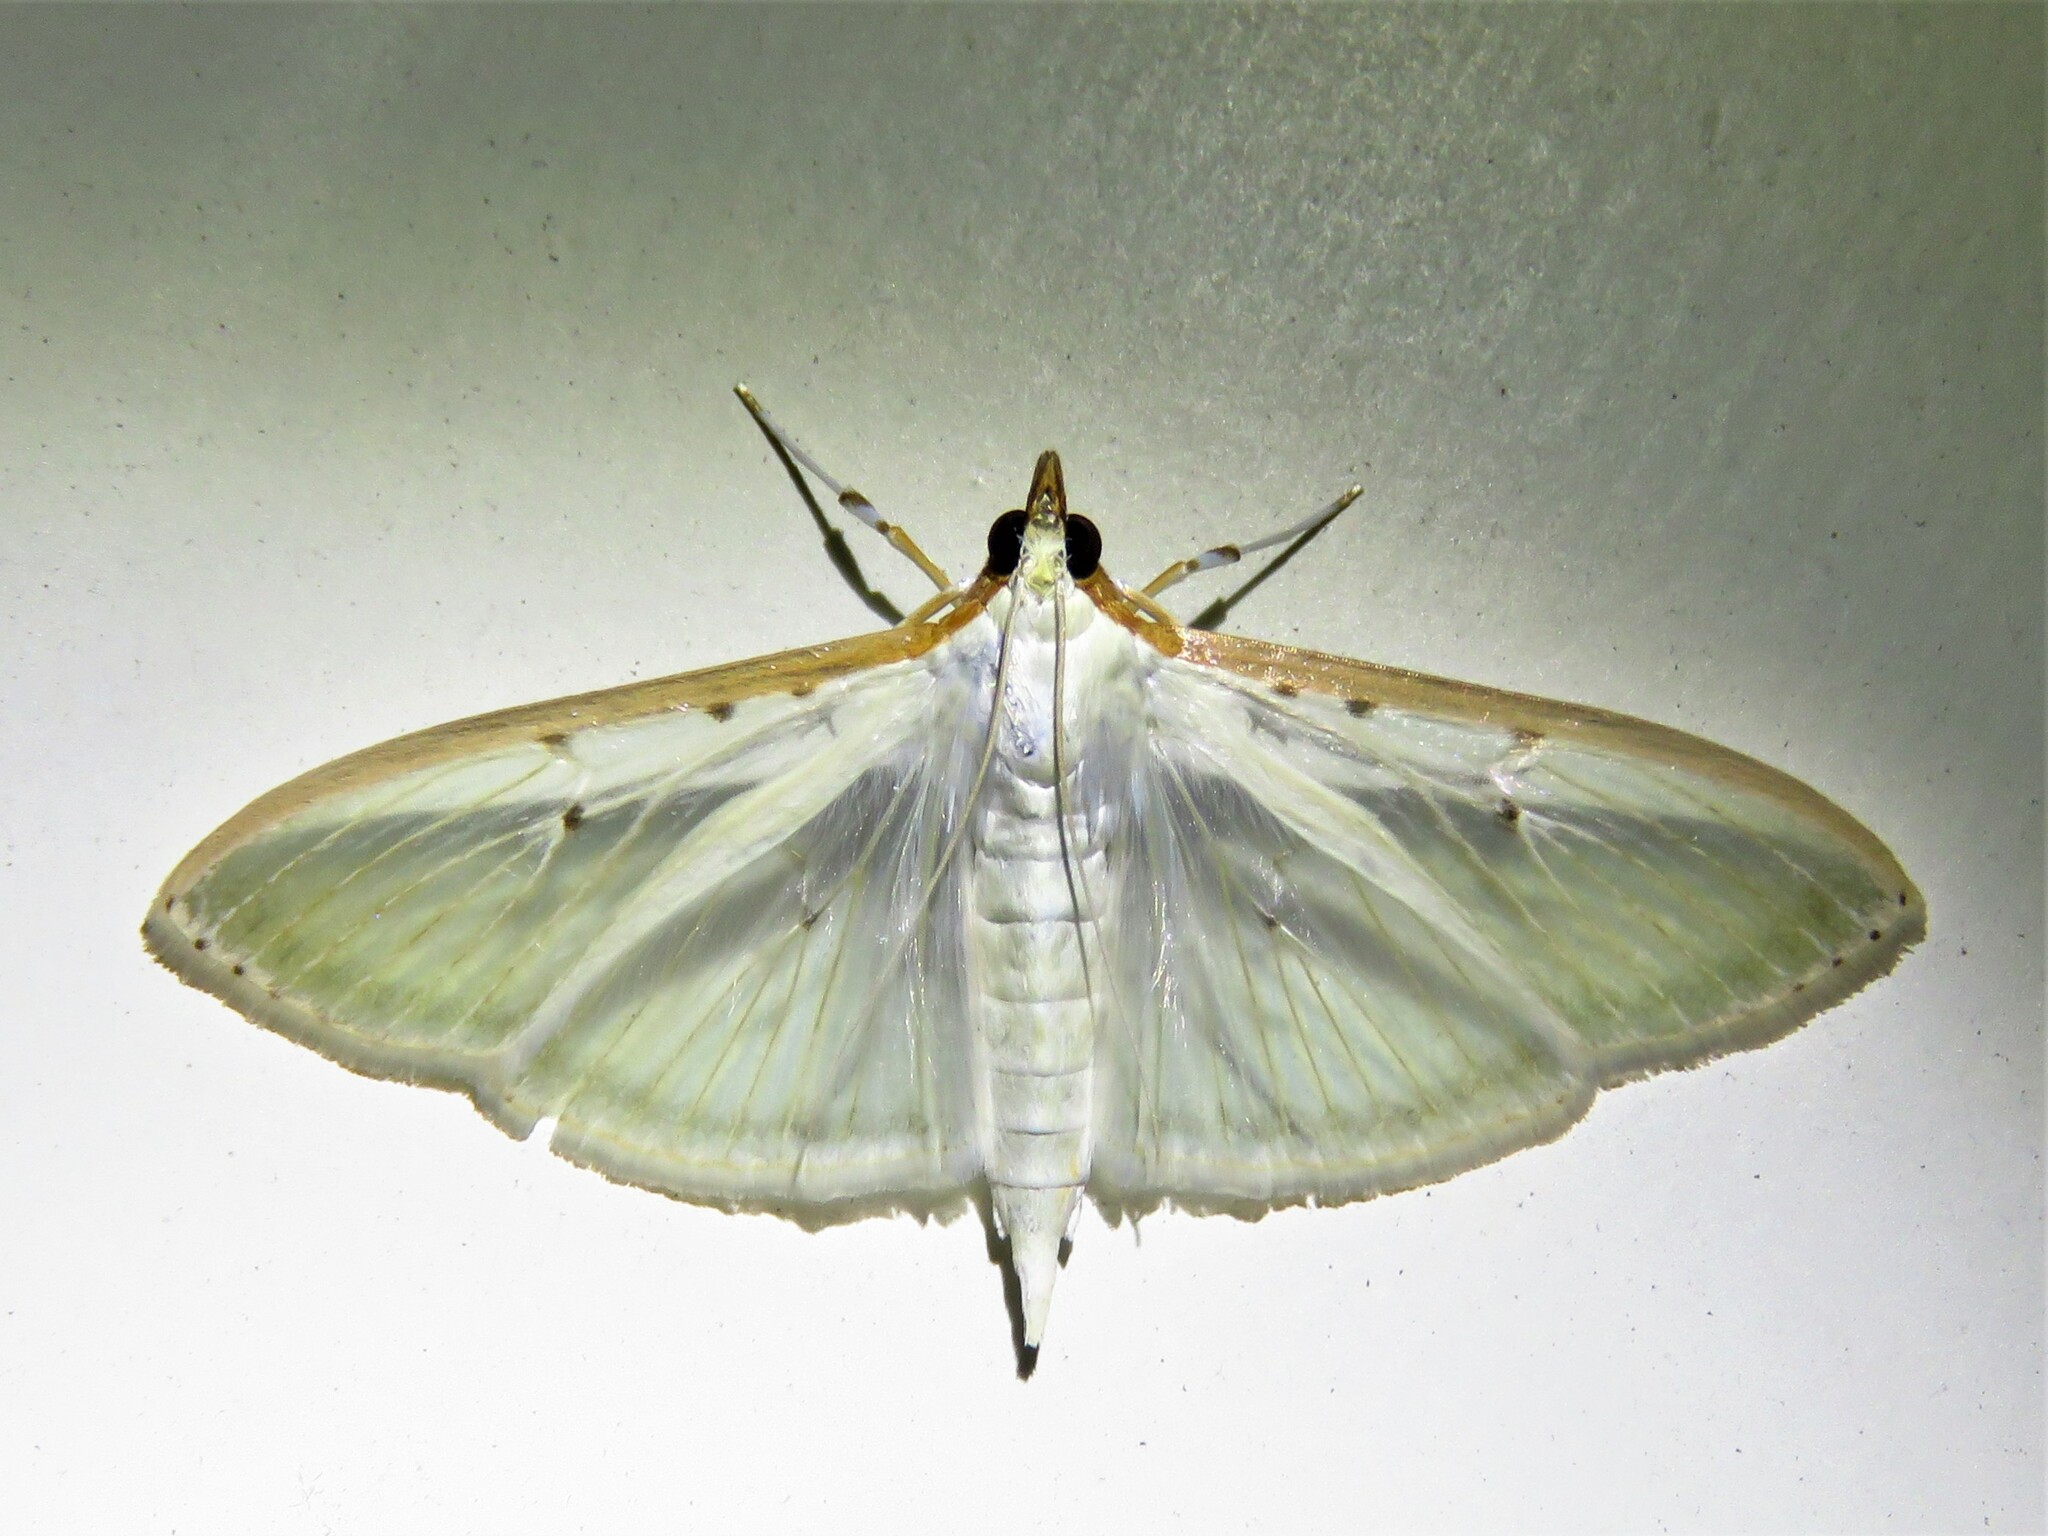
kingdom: Animalia
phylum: Arthropoda
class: Insecta
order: Lepidoptera
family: Crambidae
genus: Palpita
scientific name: Palpita quadristigmalis
